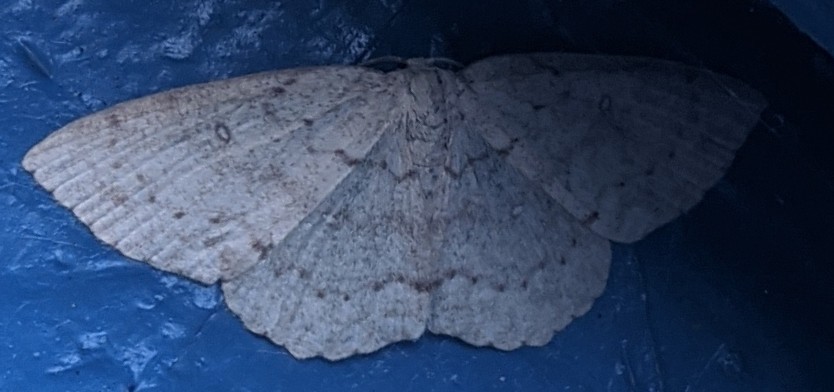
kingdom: Animalia
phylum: Arthropoda
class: Insecta
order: Lepidoptera
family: Geometridae
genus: Cyclophora
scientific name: Cyclophora pendulinaria
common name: Sweet fern geometer
